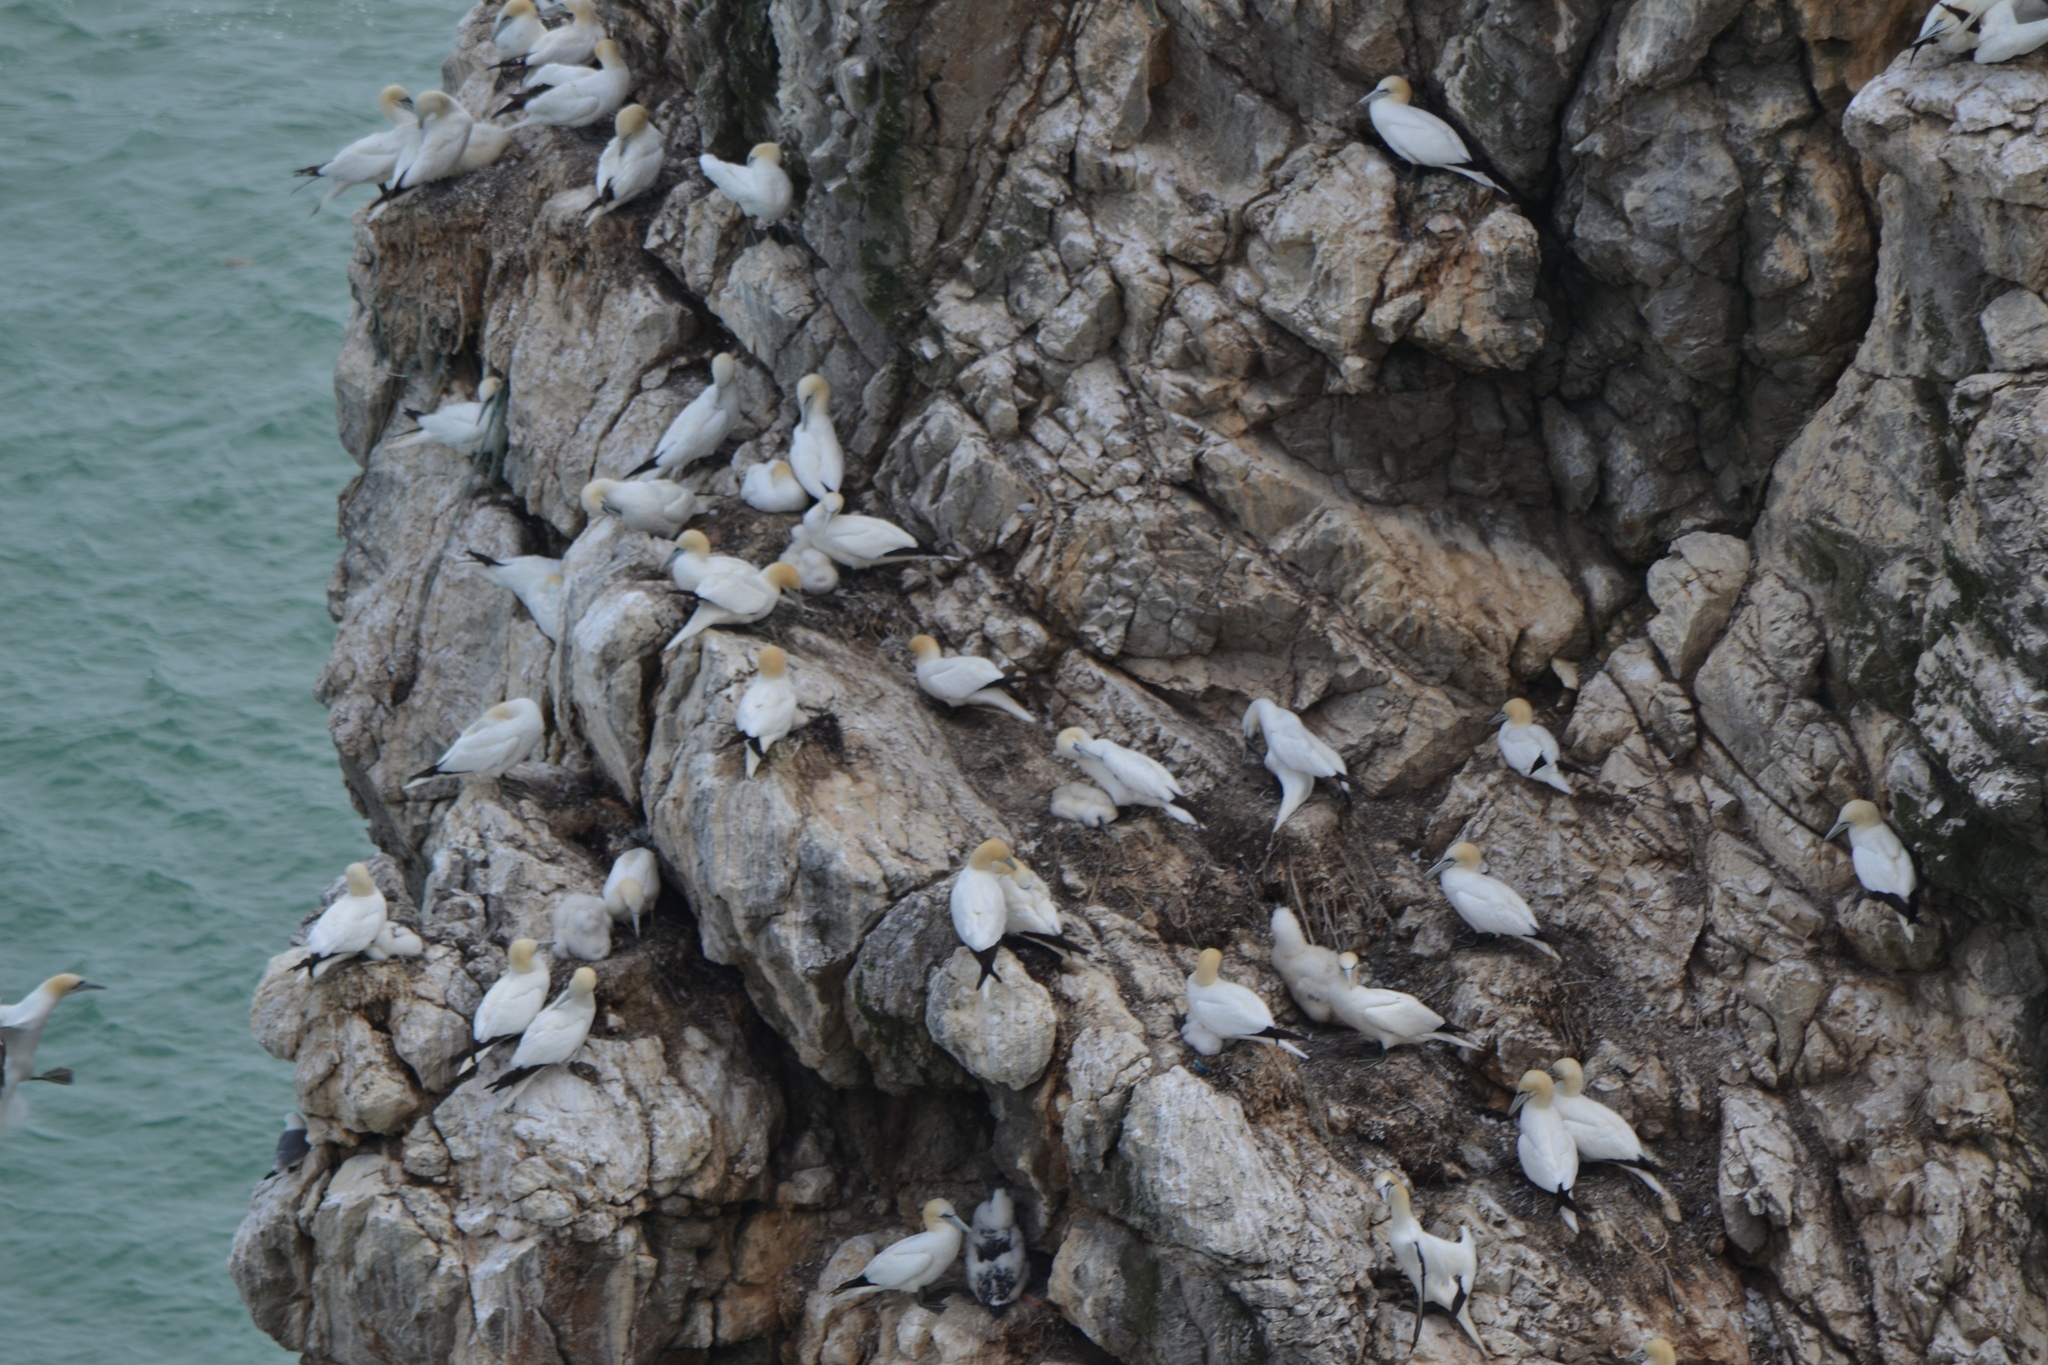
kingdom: Animalia
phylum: Chordata
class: Aves
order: Suliformes
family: Sulidae
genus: Morus
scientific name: Morus bassanus
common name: Northern gannet
